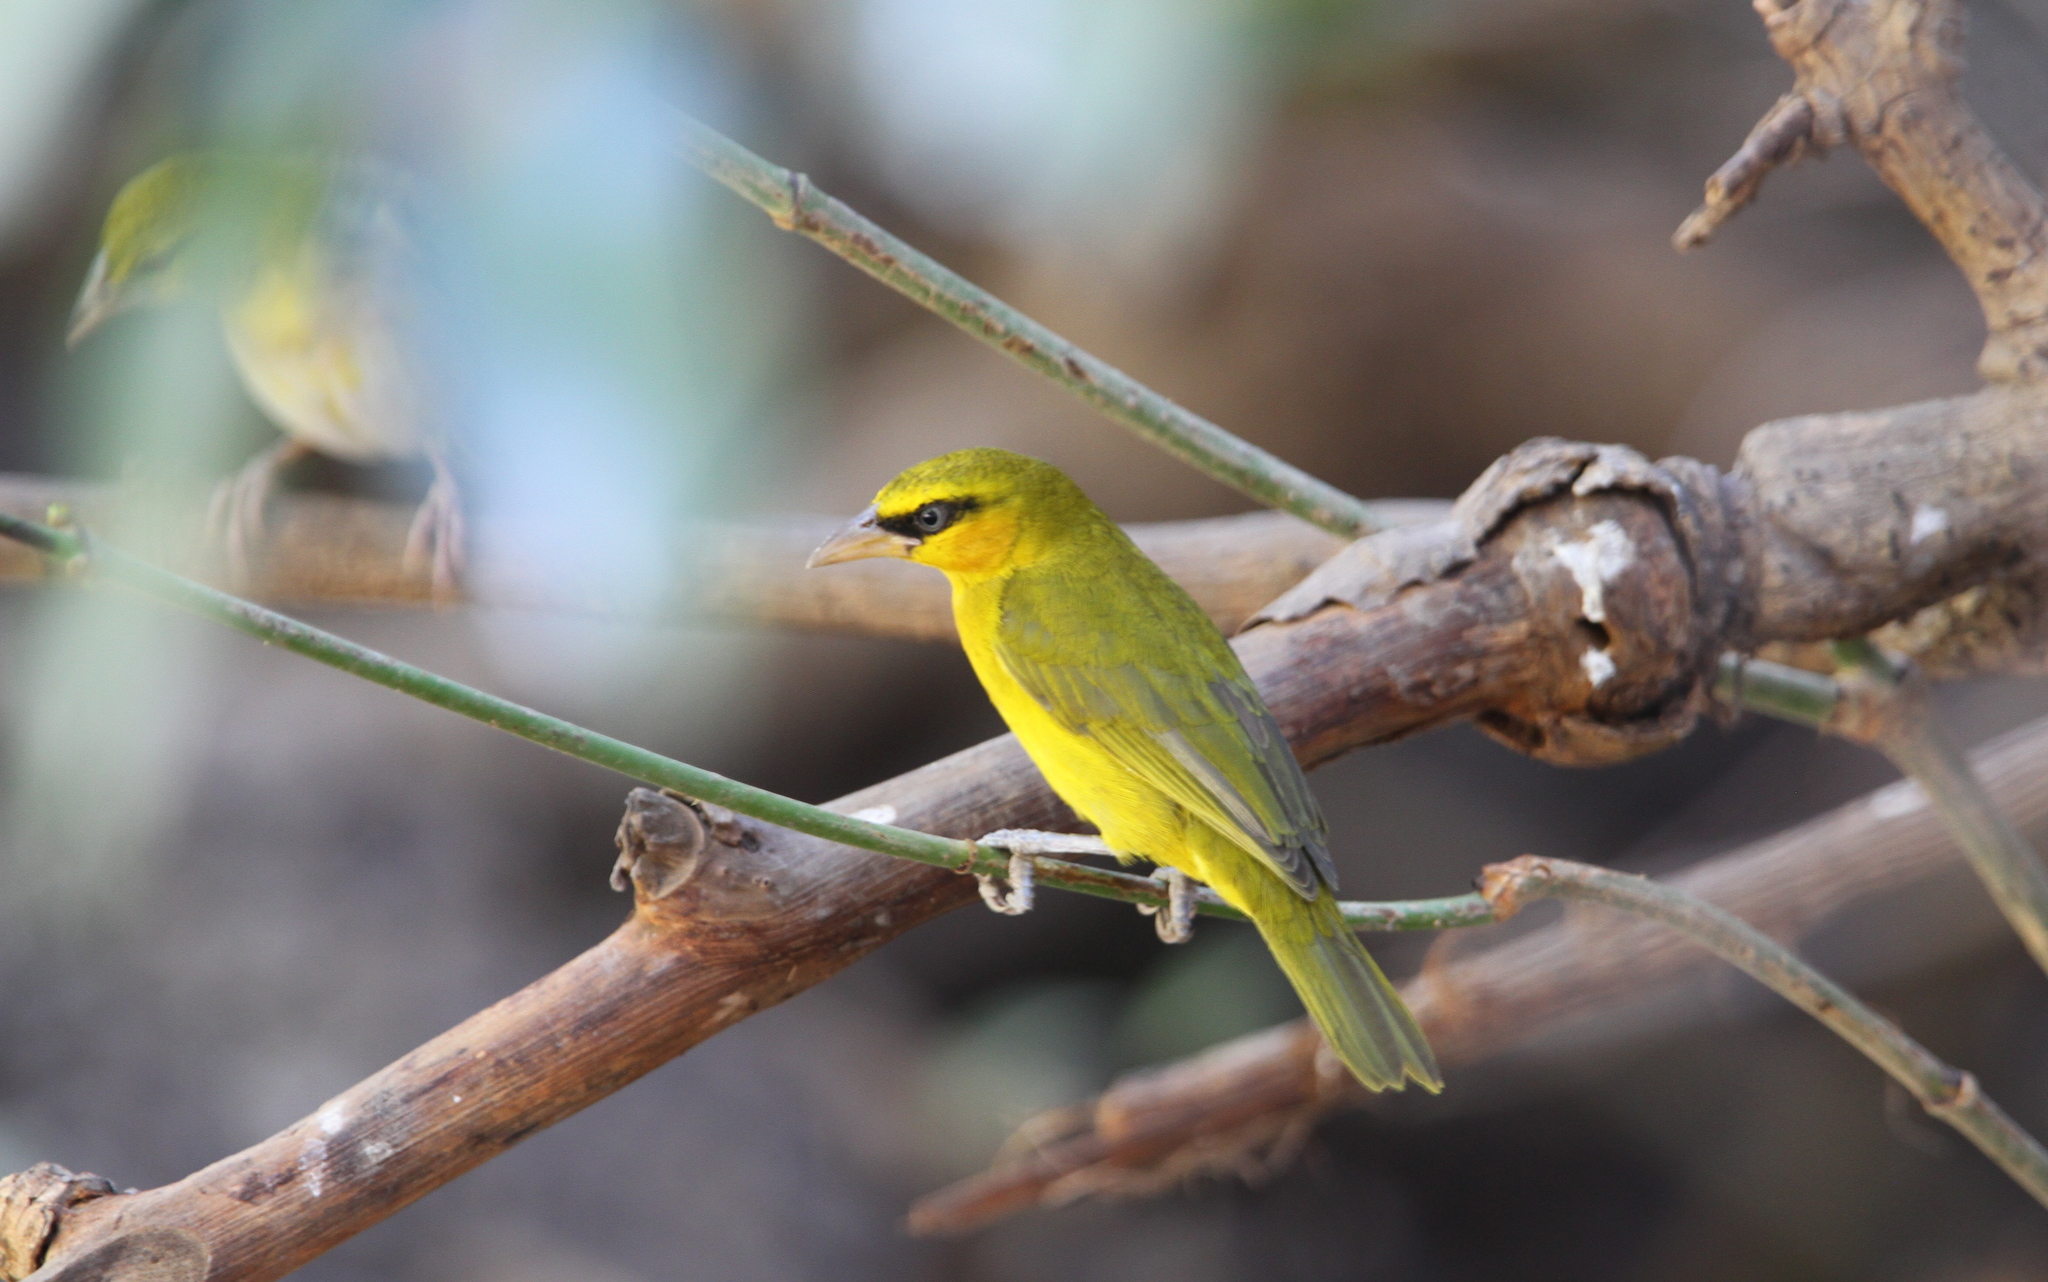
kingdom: Animalia
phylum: Chordata
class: Aves
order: Passeriformes
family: Ploceidae
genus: Ploceus
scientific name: Ploceus brachypterus
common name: Olive-naped weaver
